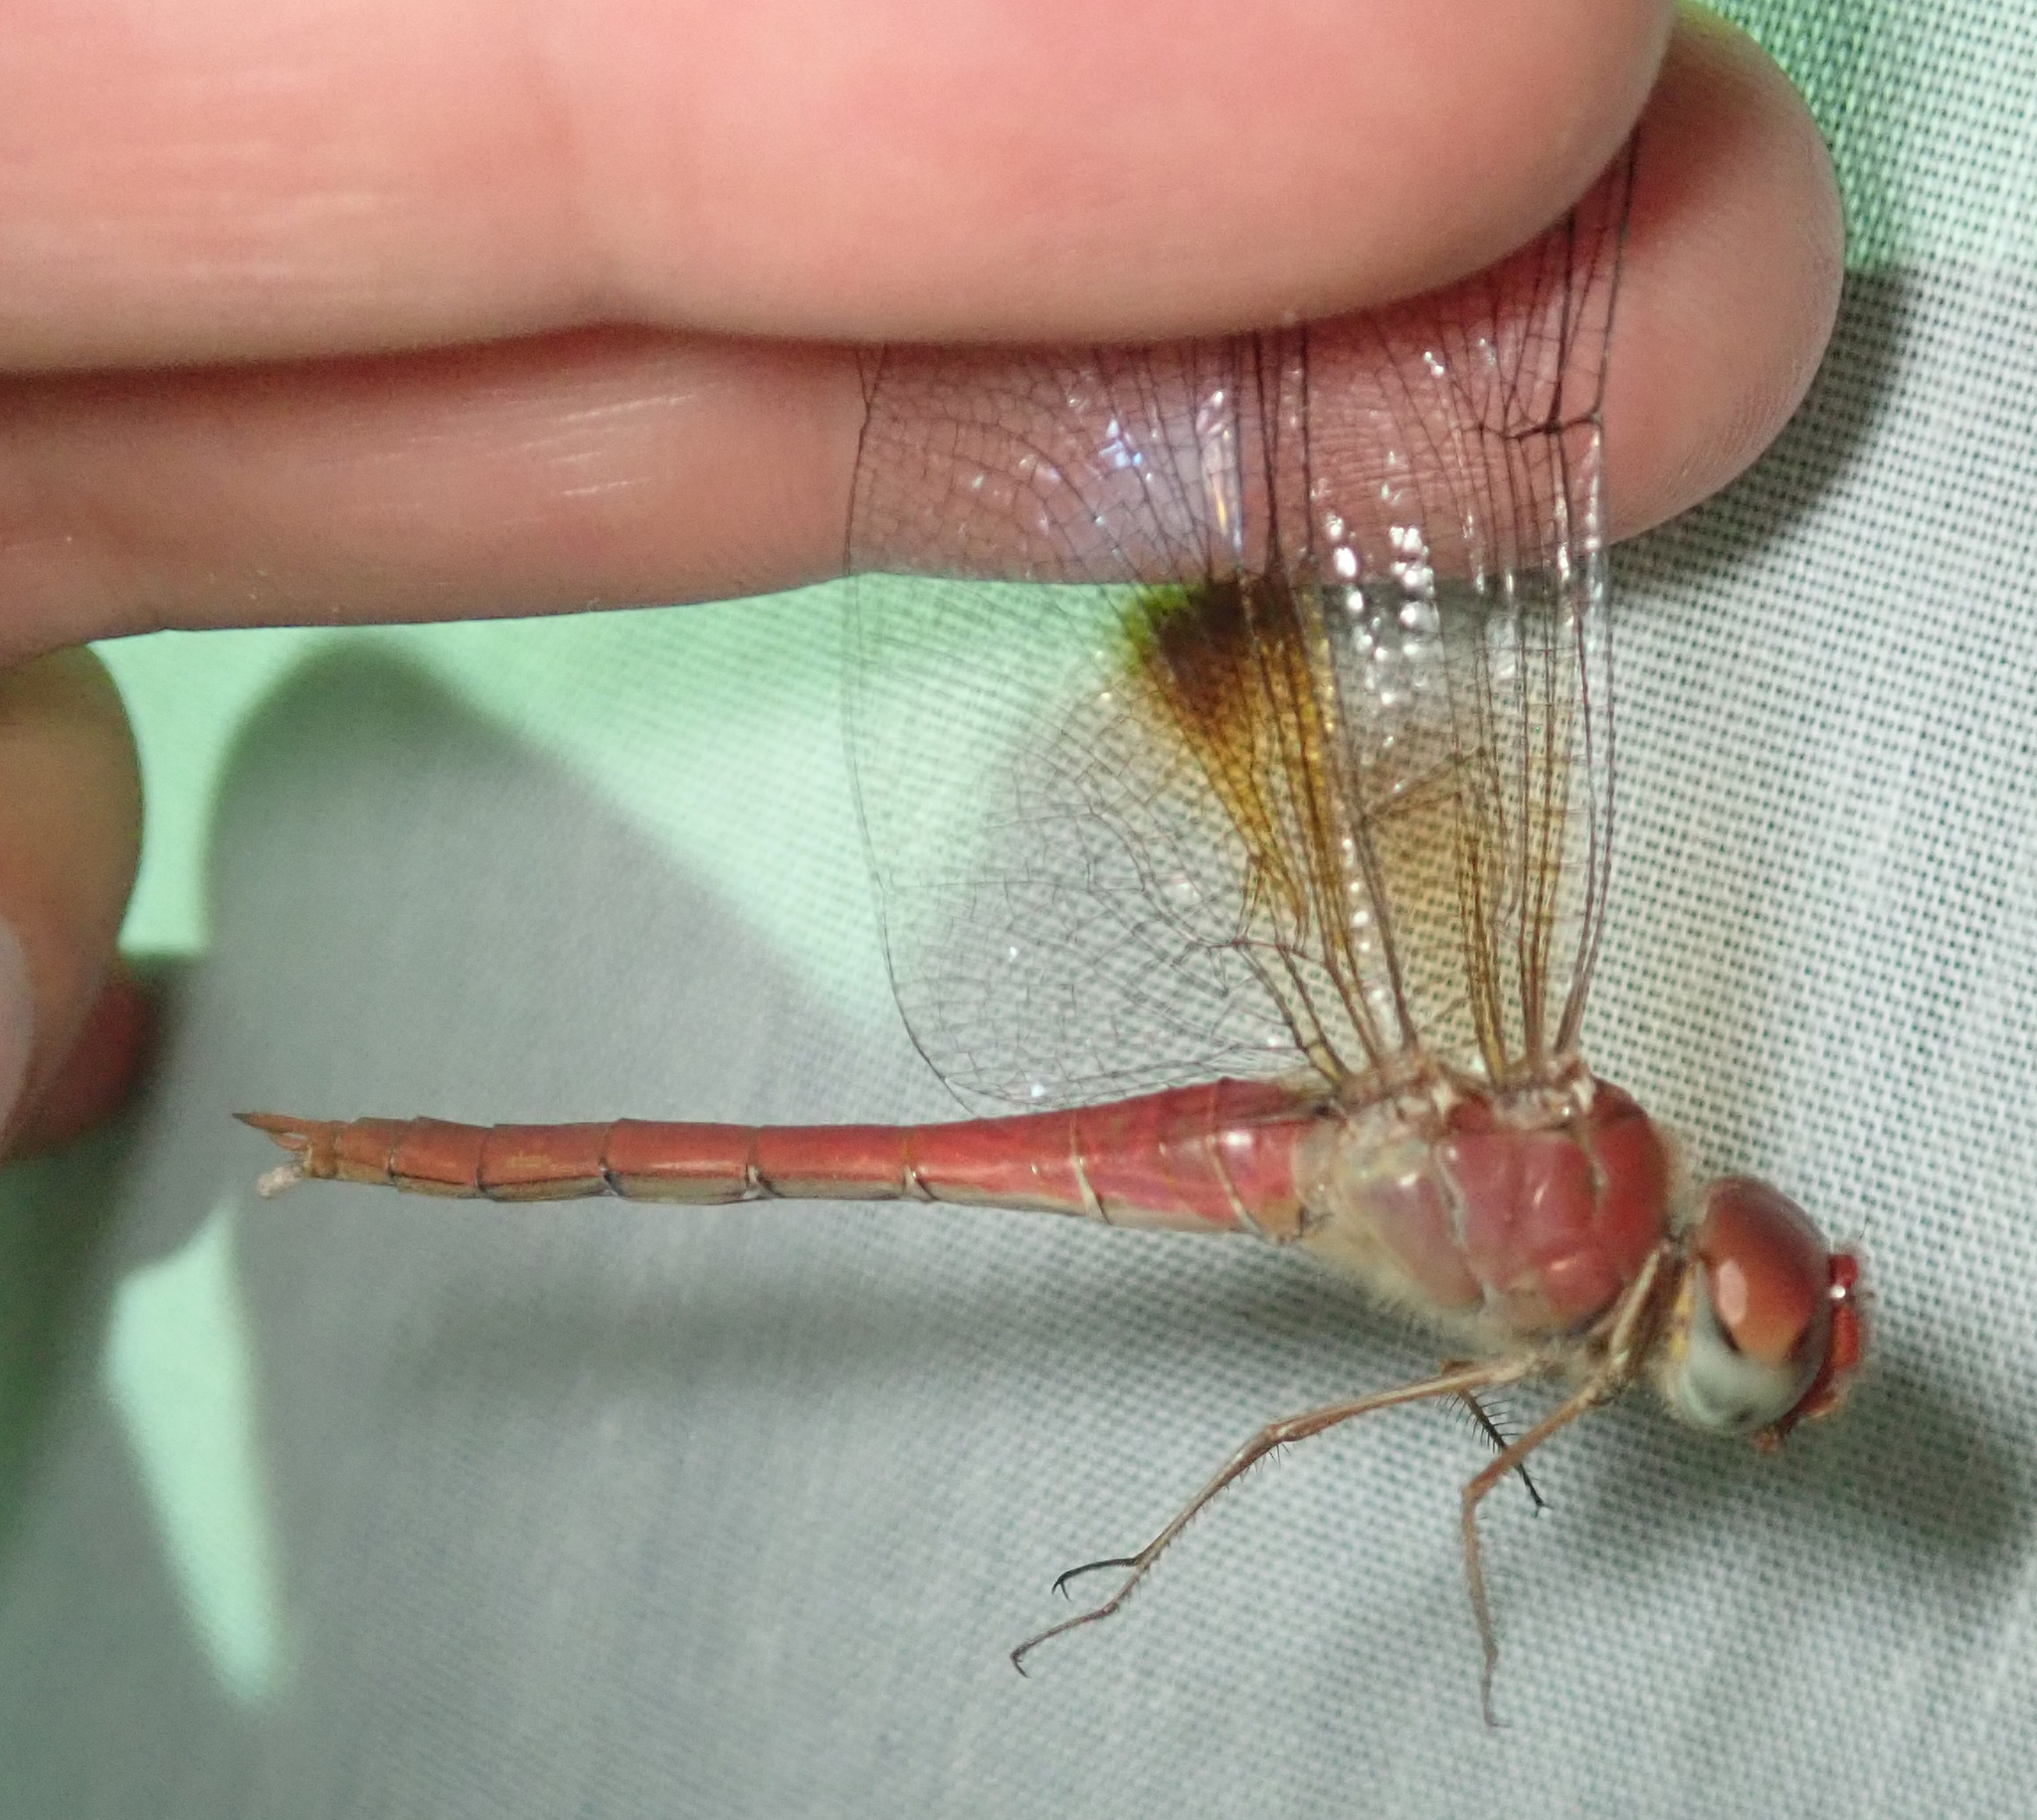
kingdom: Animalia
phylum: Arthropoda
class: Insecta
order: Odonata
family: Libellulidae
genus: Tholymis
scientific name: Tholymis tillarga
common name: Coral-tailed cloud wing
